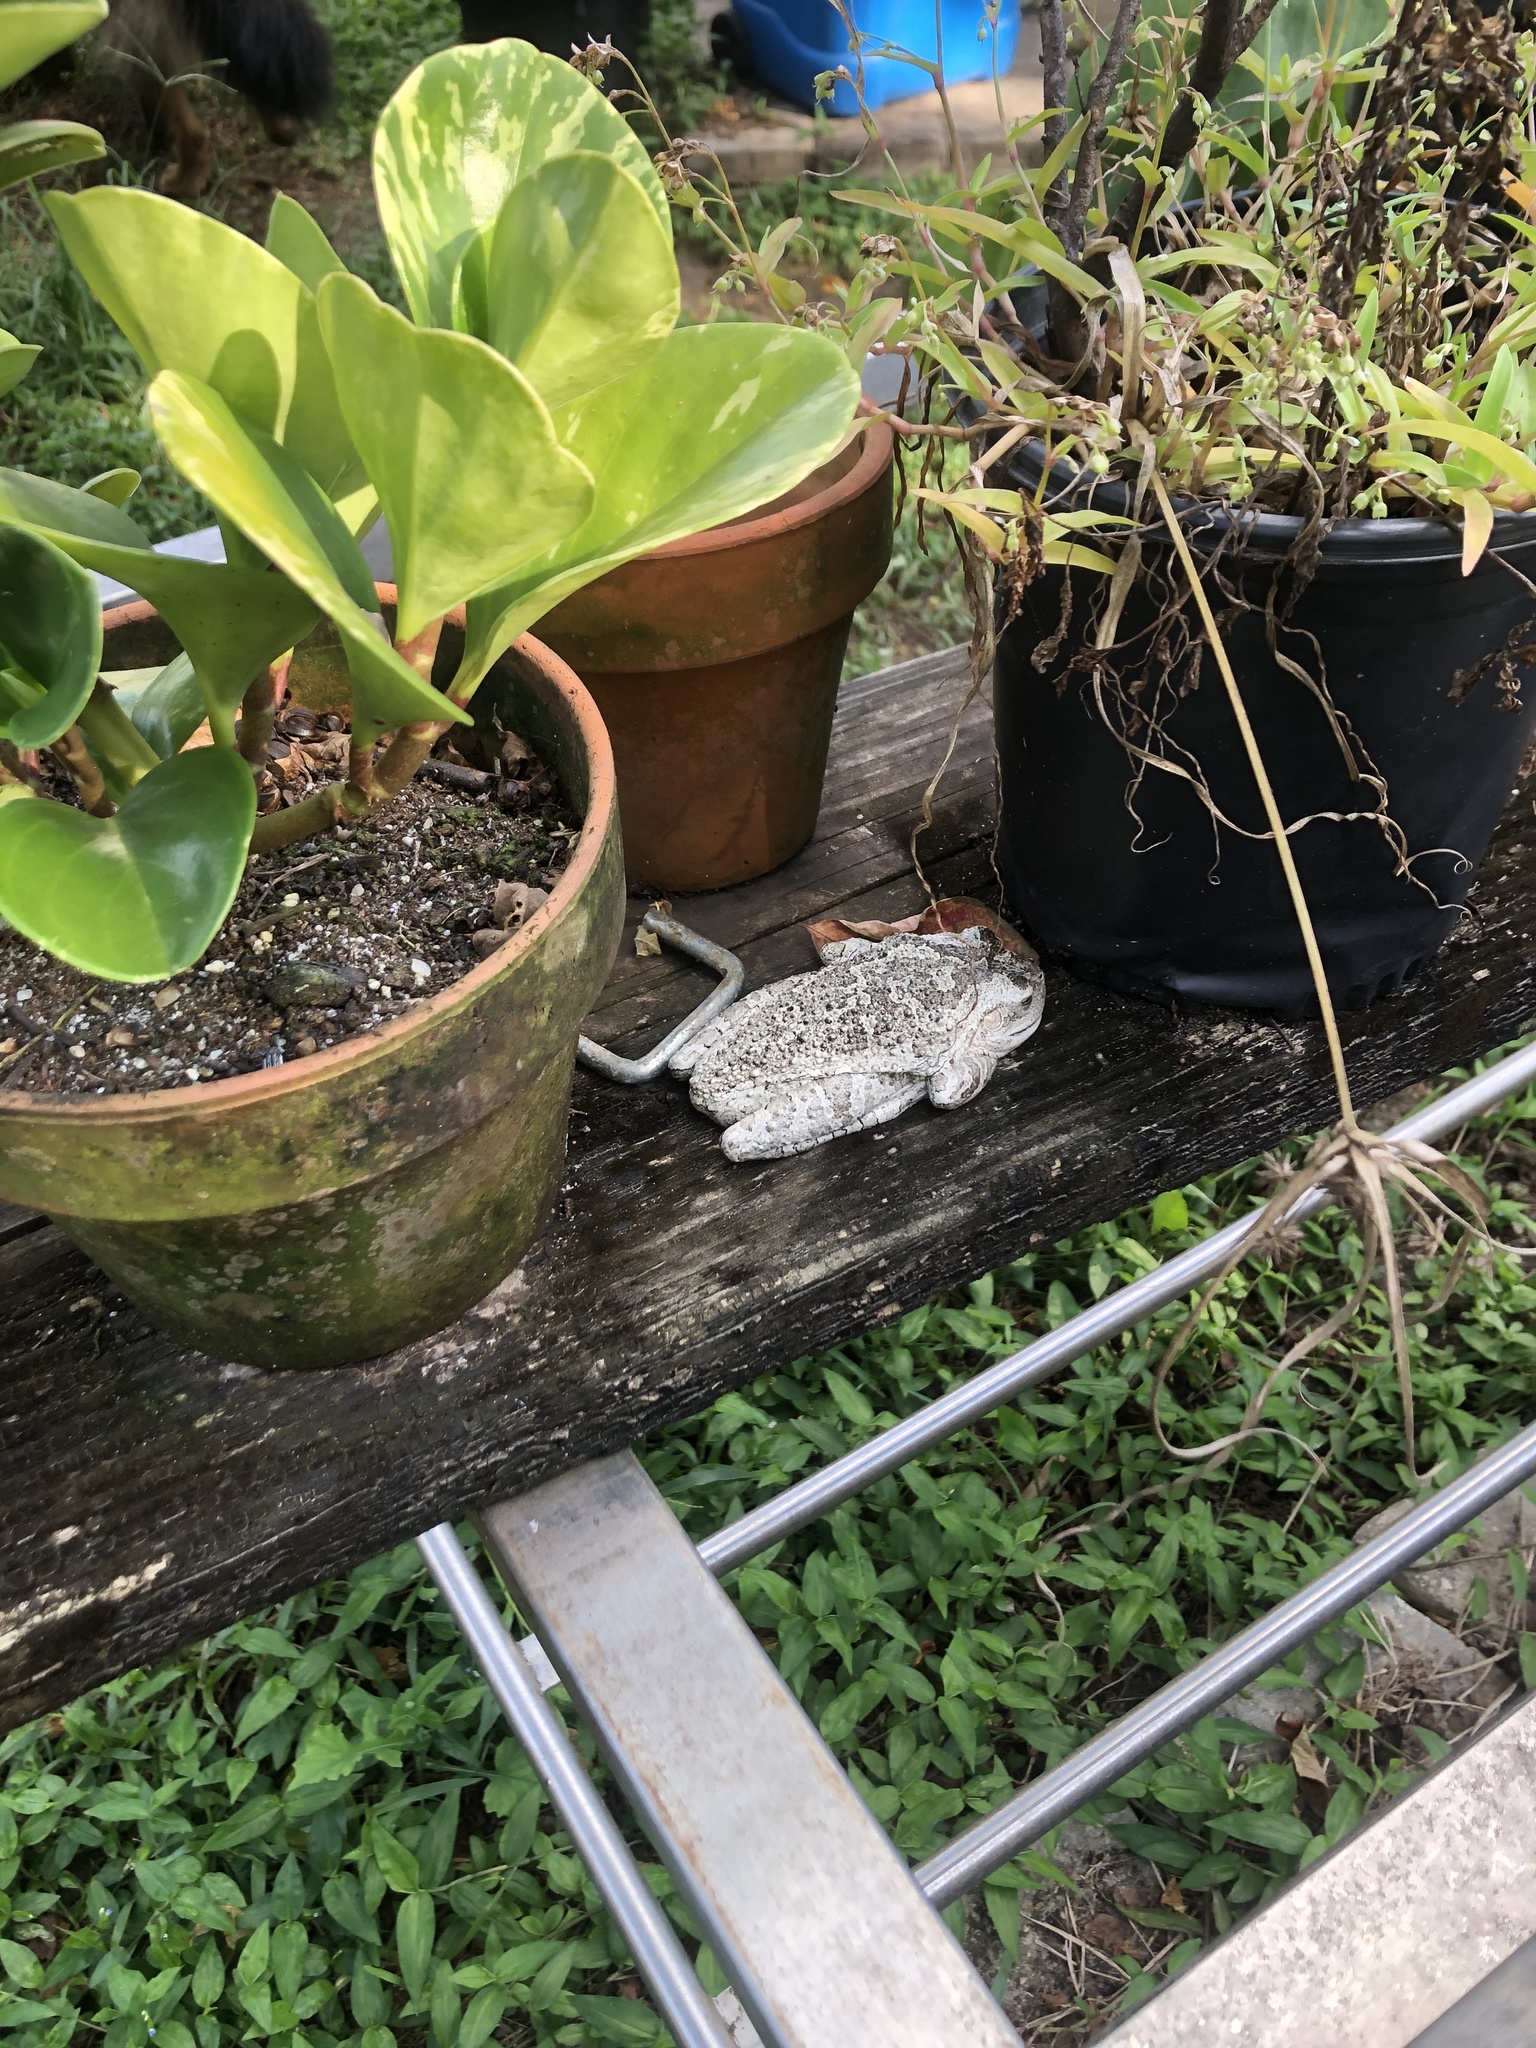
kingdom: Animalia
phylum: Chordata
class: Amphibia
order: Anura
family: Hylidae
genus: Osteopilus
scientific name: Osteopilus septentrionalis
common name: Cuban treefrog
